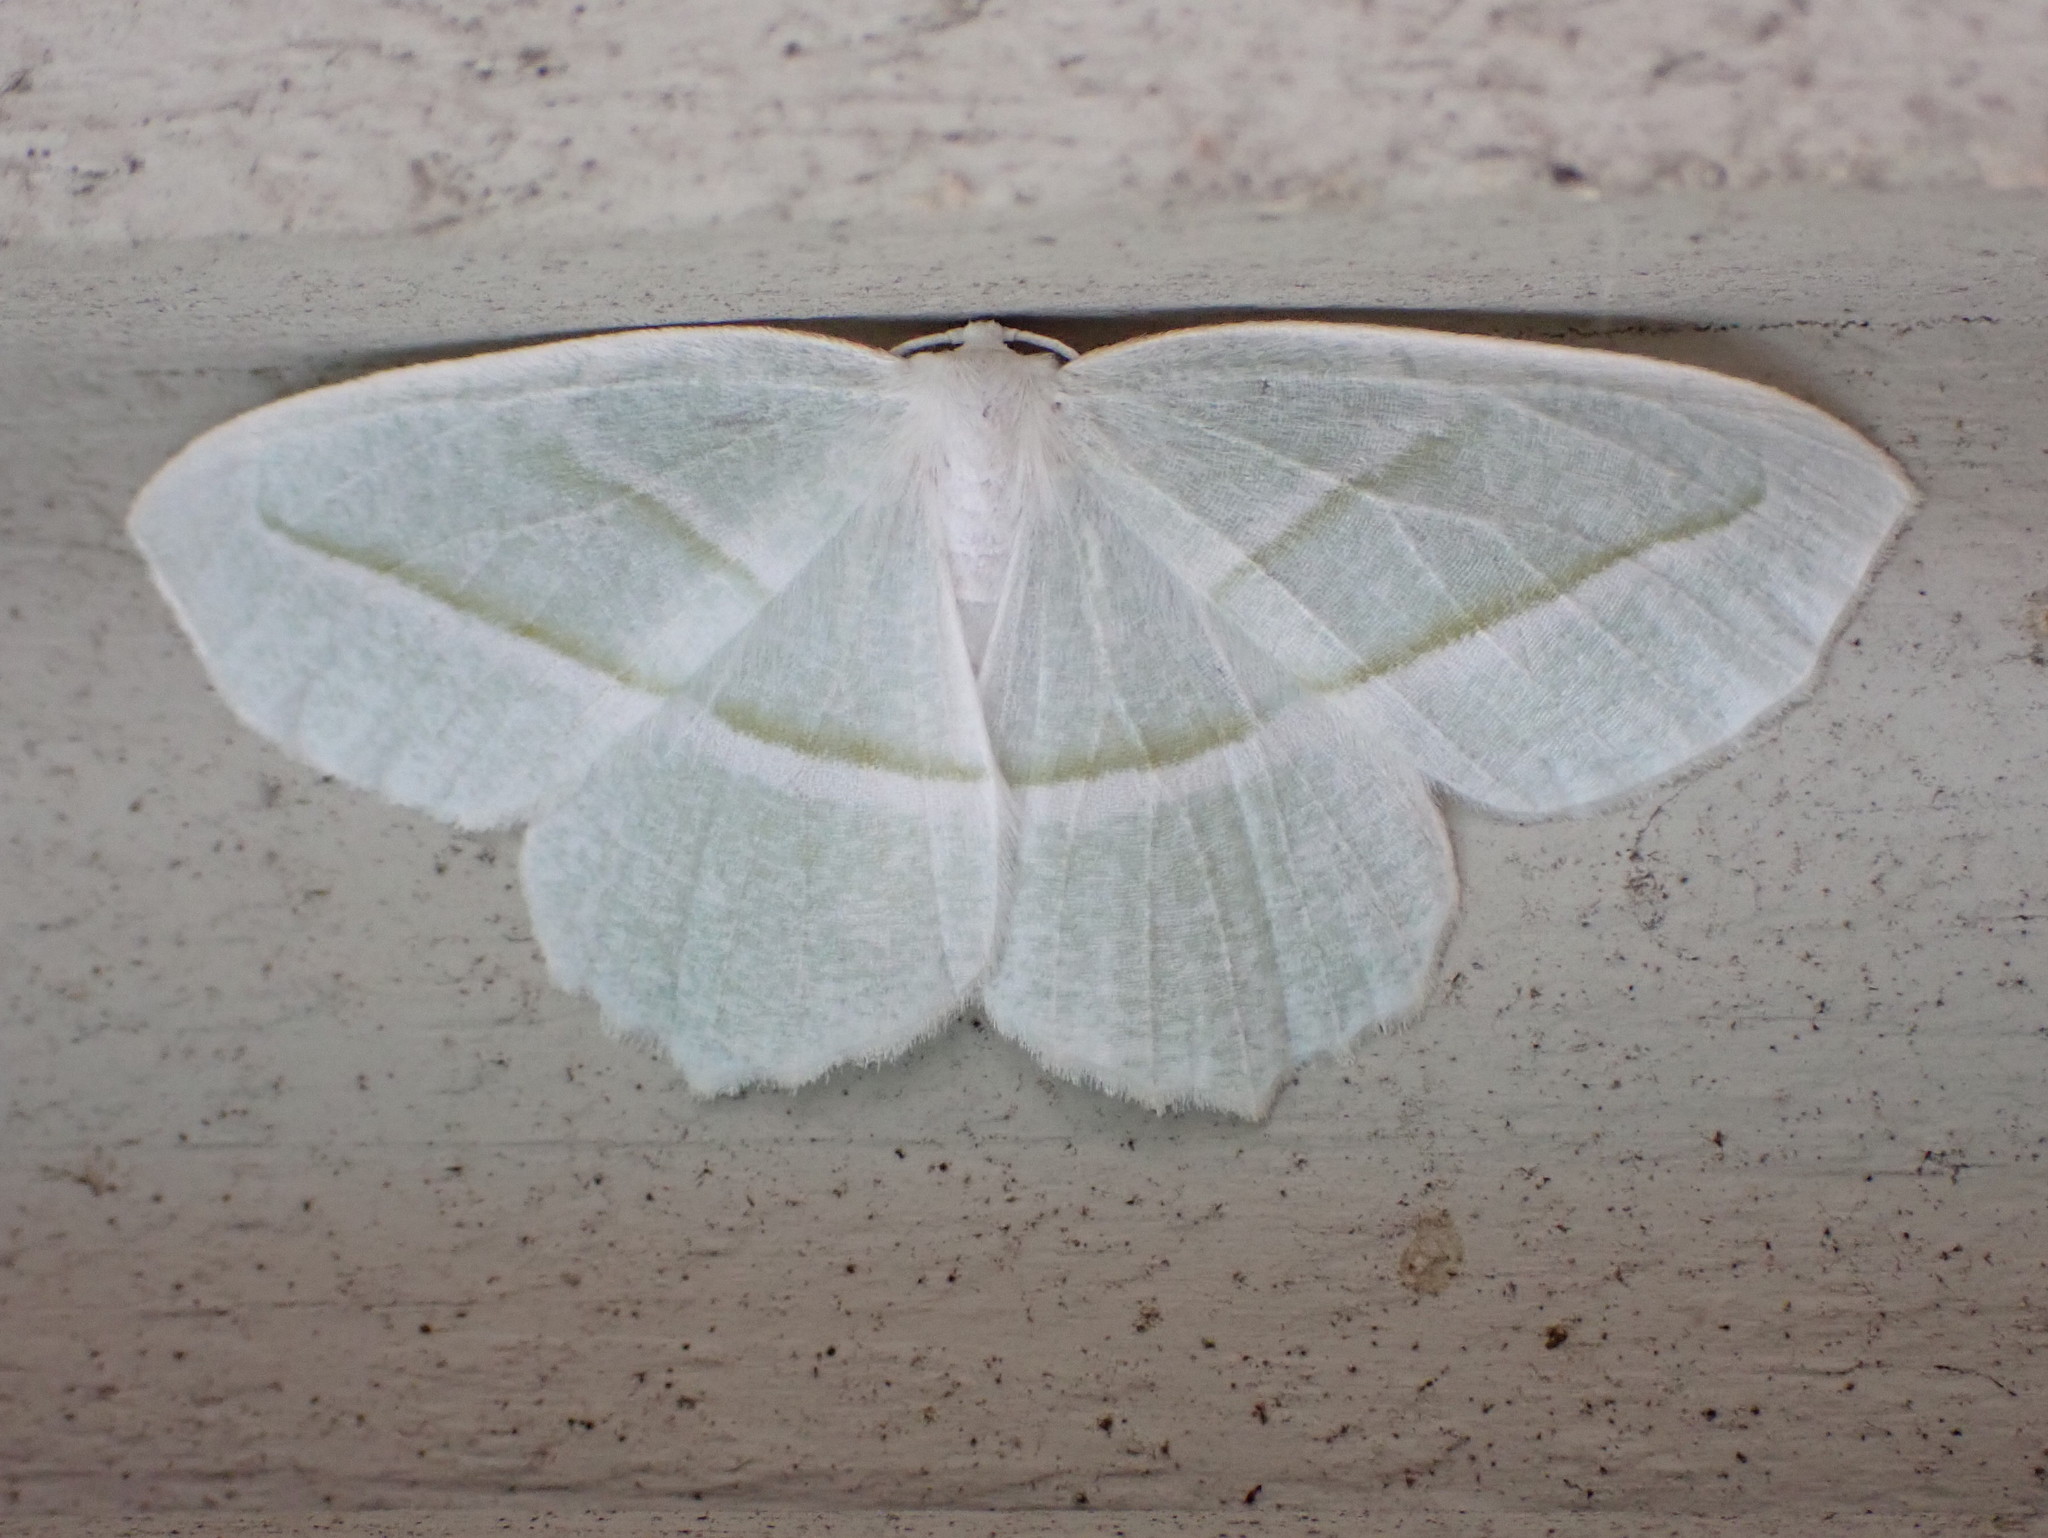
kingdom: Animalia
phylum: Arthropoda
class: Insecta
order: Lepidoptera
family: Geometridae
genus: Campaea
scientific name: Campaea perlata
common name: Fringed looper
